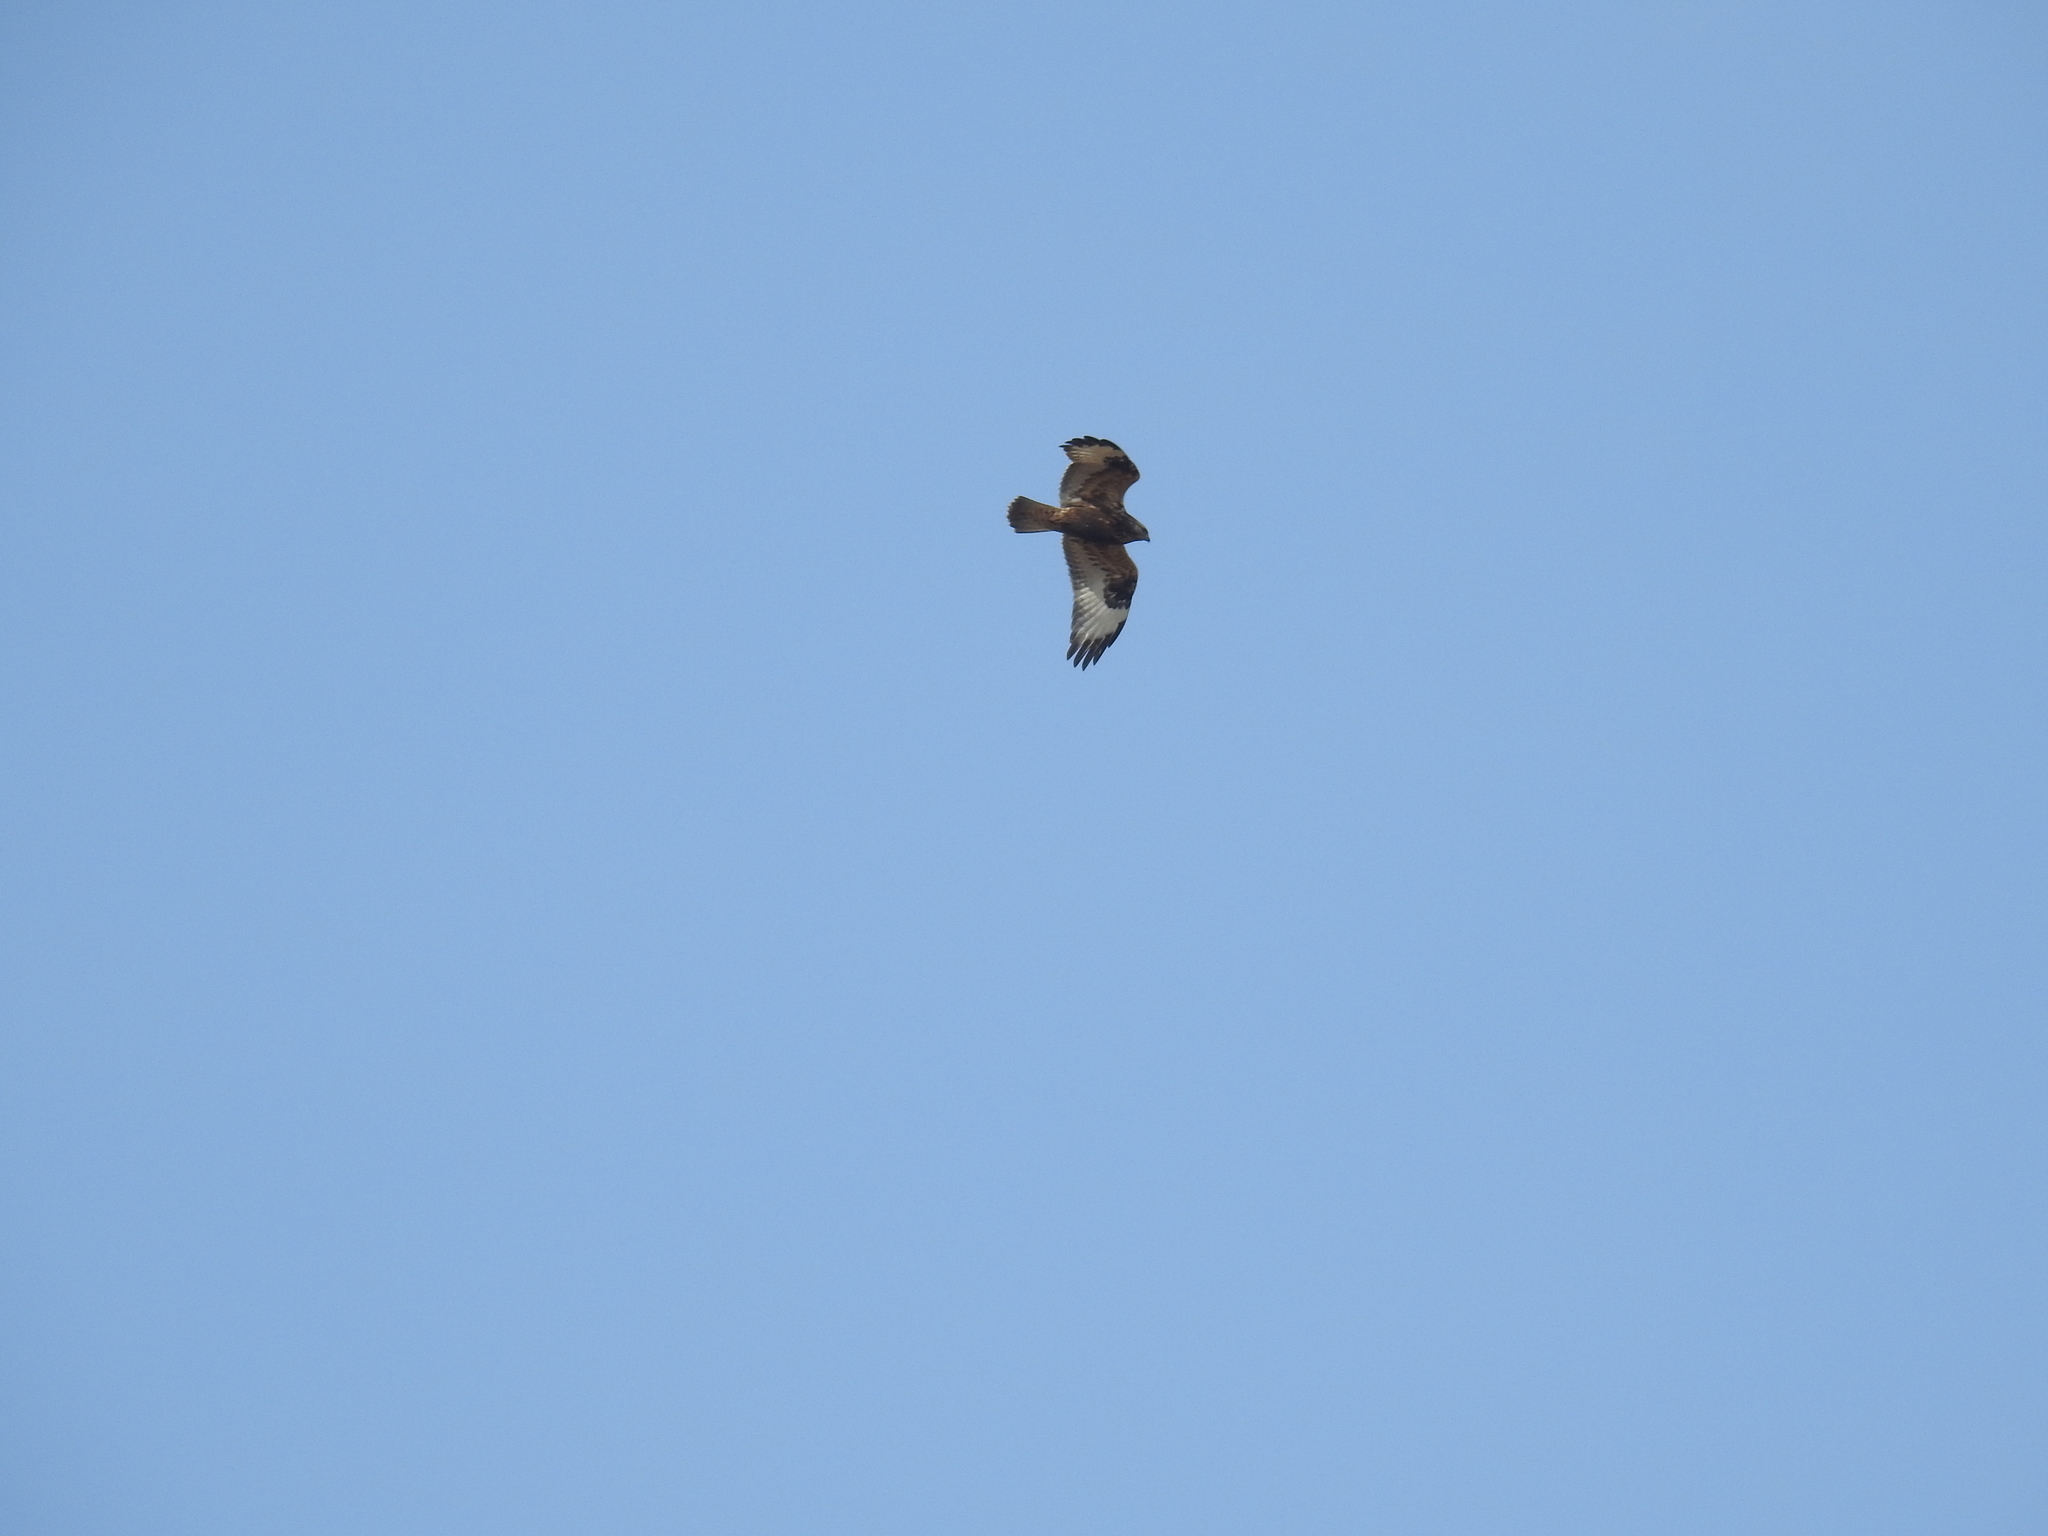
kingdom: Animalia
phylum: Chordata
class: Aves
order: Accipitriformes
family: Accipitridae
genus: Buteo
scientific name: Buteo lagopus
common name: Rough-legged buzzard
